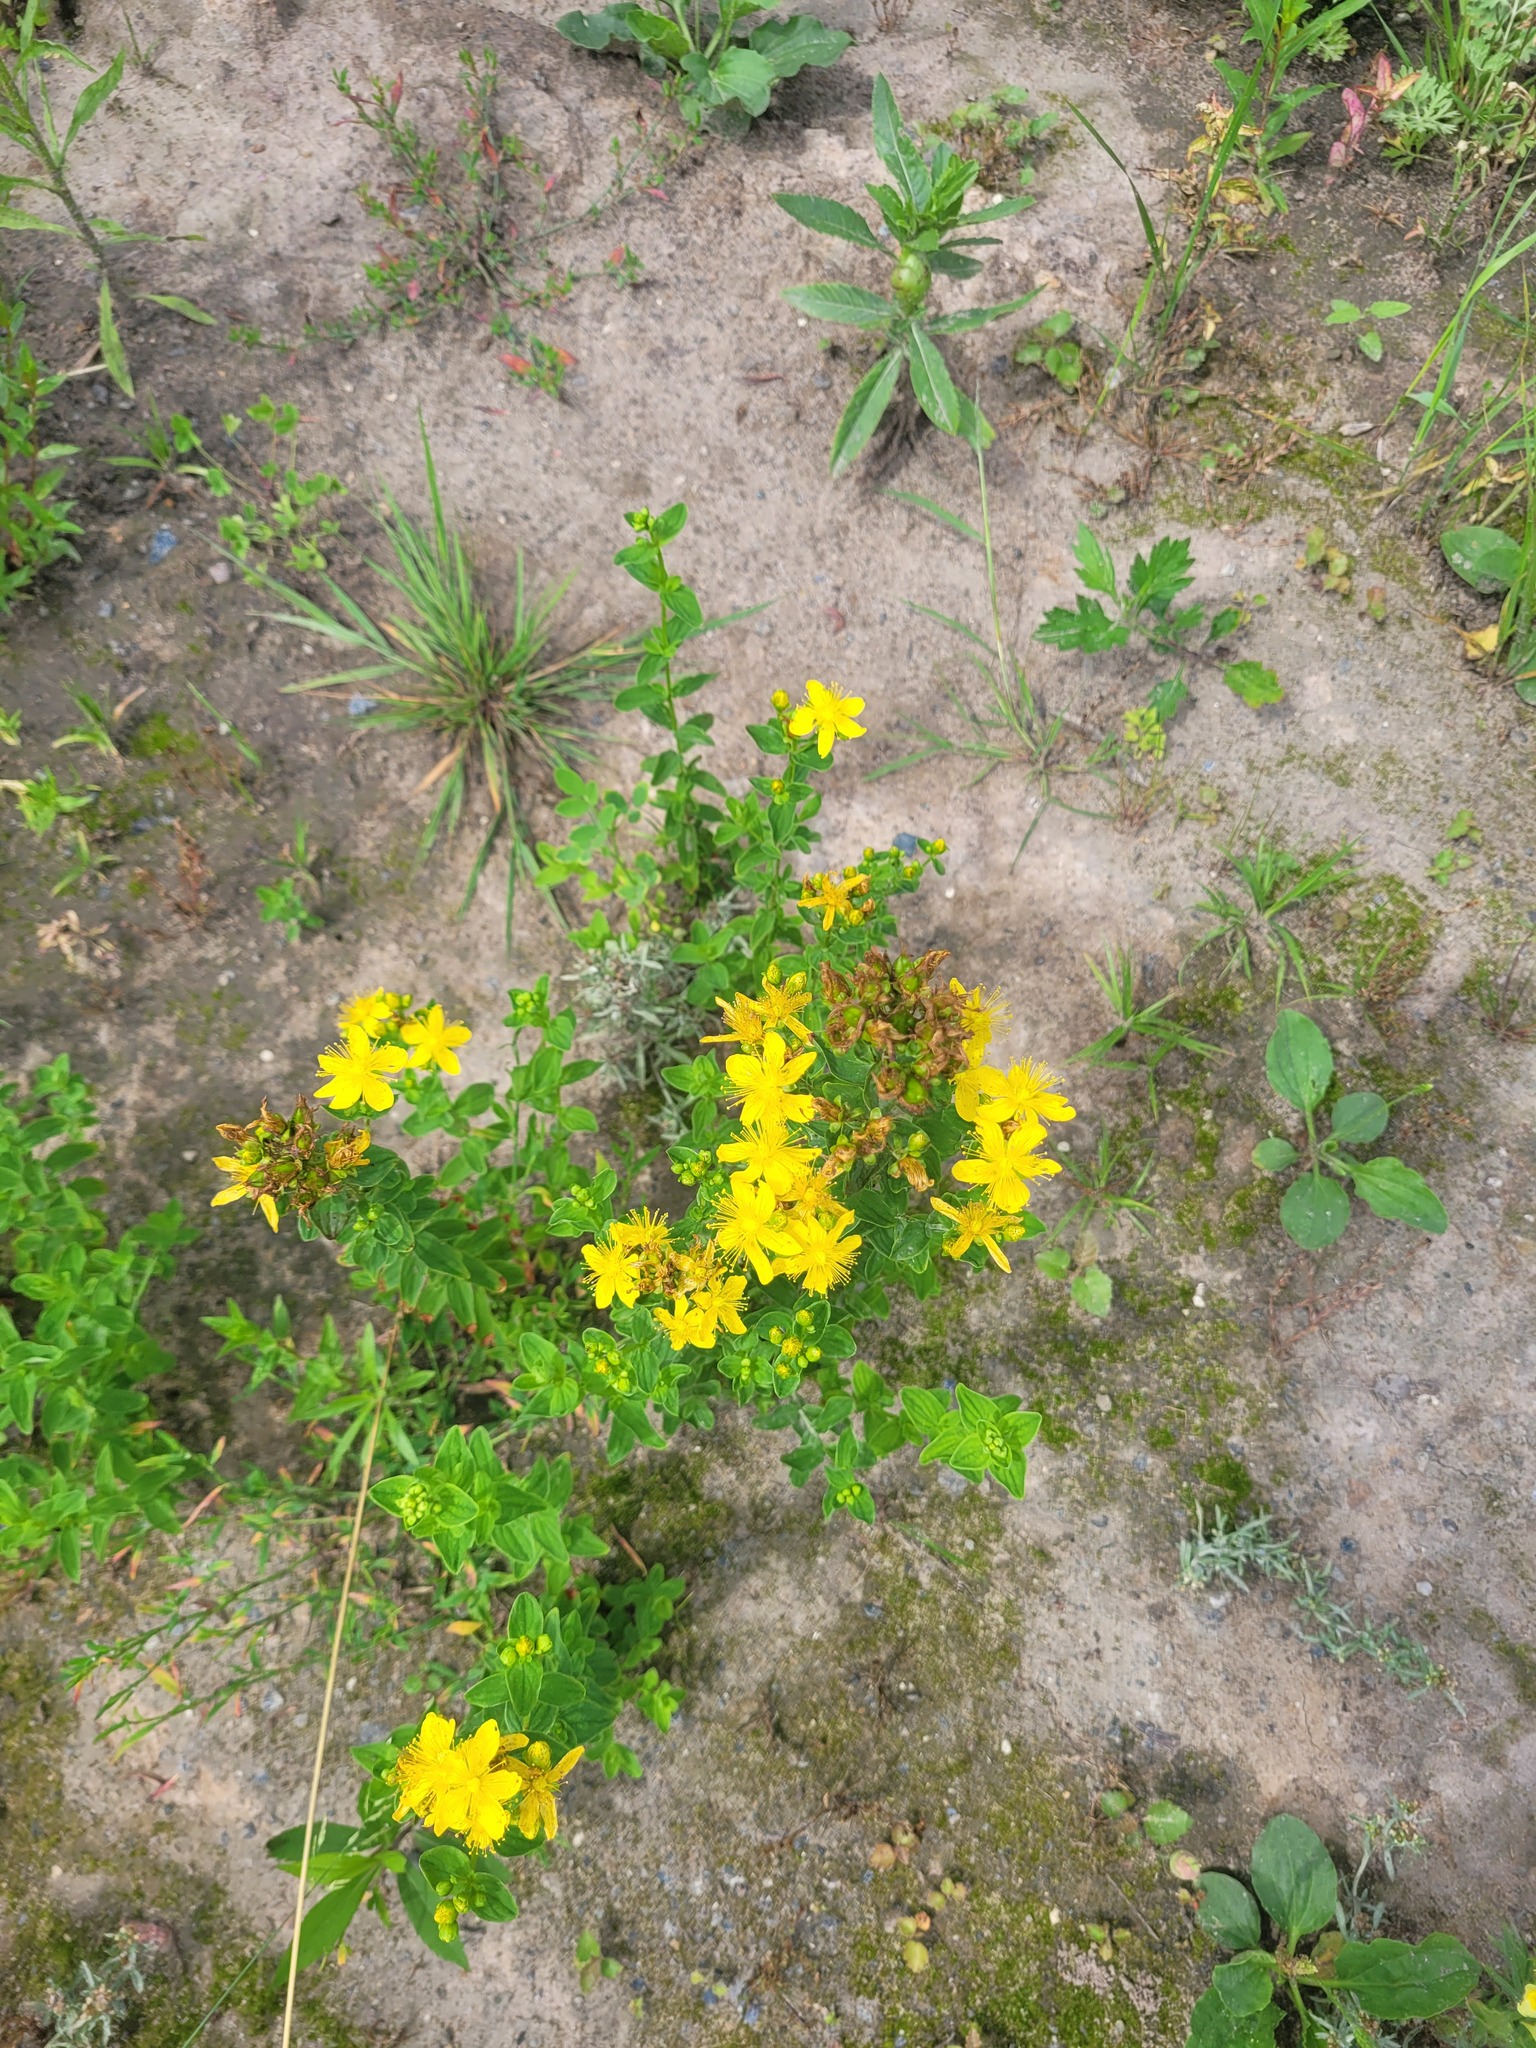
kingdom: Plantae
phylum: Tracheophyta
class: Magnoliopsida
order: Malpighiales
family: Hypericaceae
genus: Hypericum
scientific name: Hypericum maculatum
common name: Imperforate st. john's-wort
